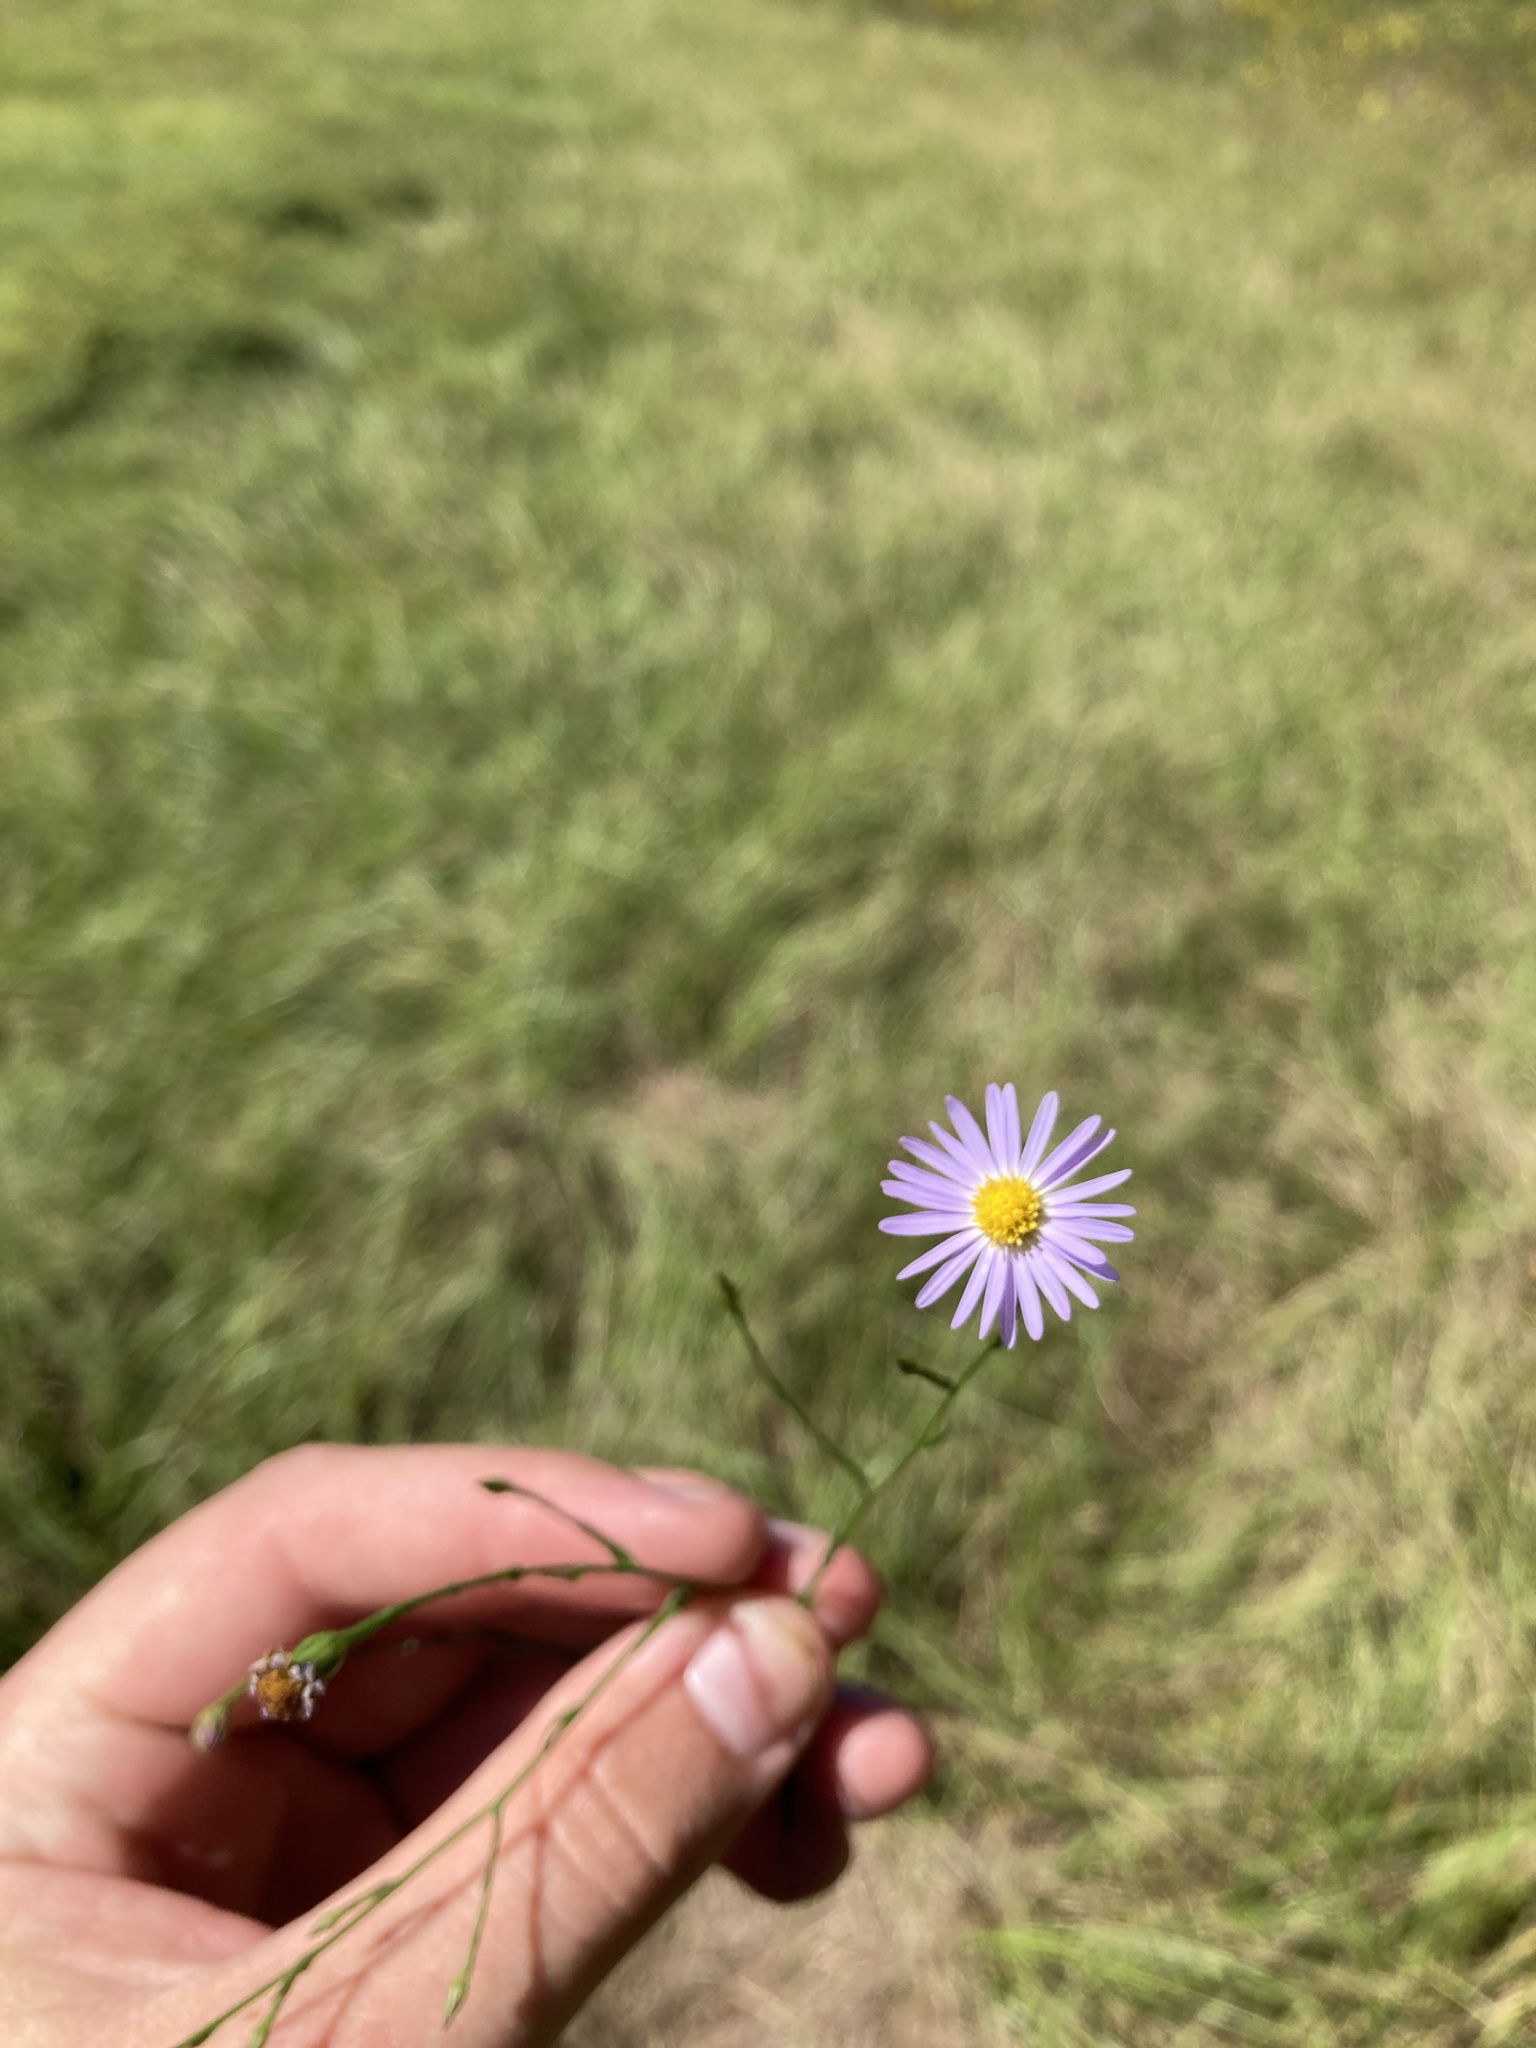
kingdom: Plantae
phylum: Tracheophyta
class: Magnoliopsida
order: Asterales
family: Asteraceae
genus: Symphyotrichum
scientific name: Symphyotrichum divaricatum
